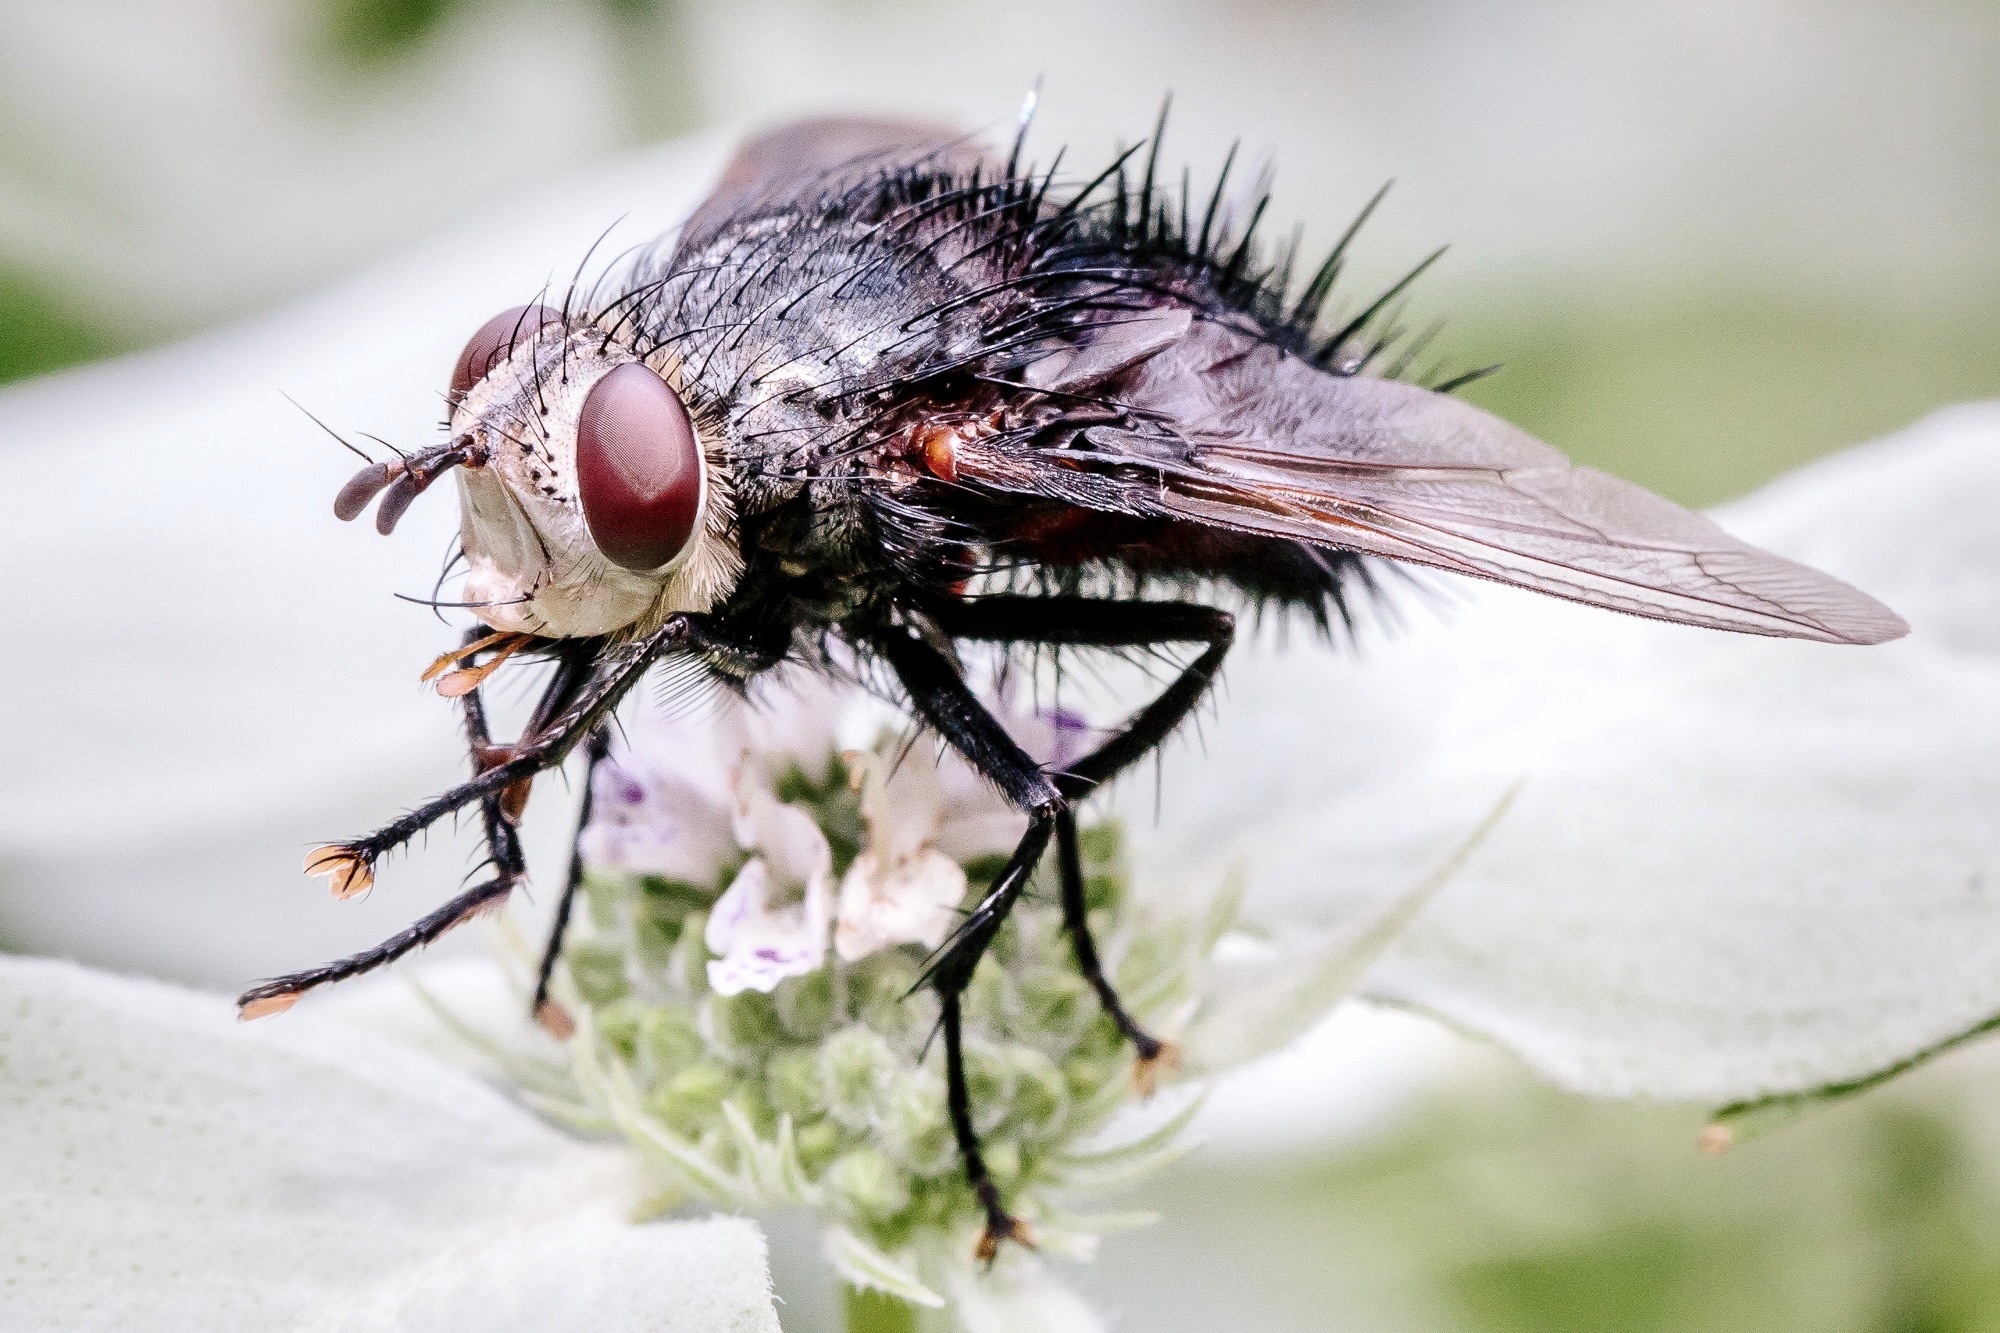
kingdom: Animalia
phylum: Arthropoda
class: Insecta
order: Diptera
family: Tachinidae
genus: Juriniopsis
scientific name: Juriniopsis adusta
